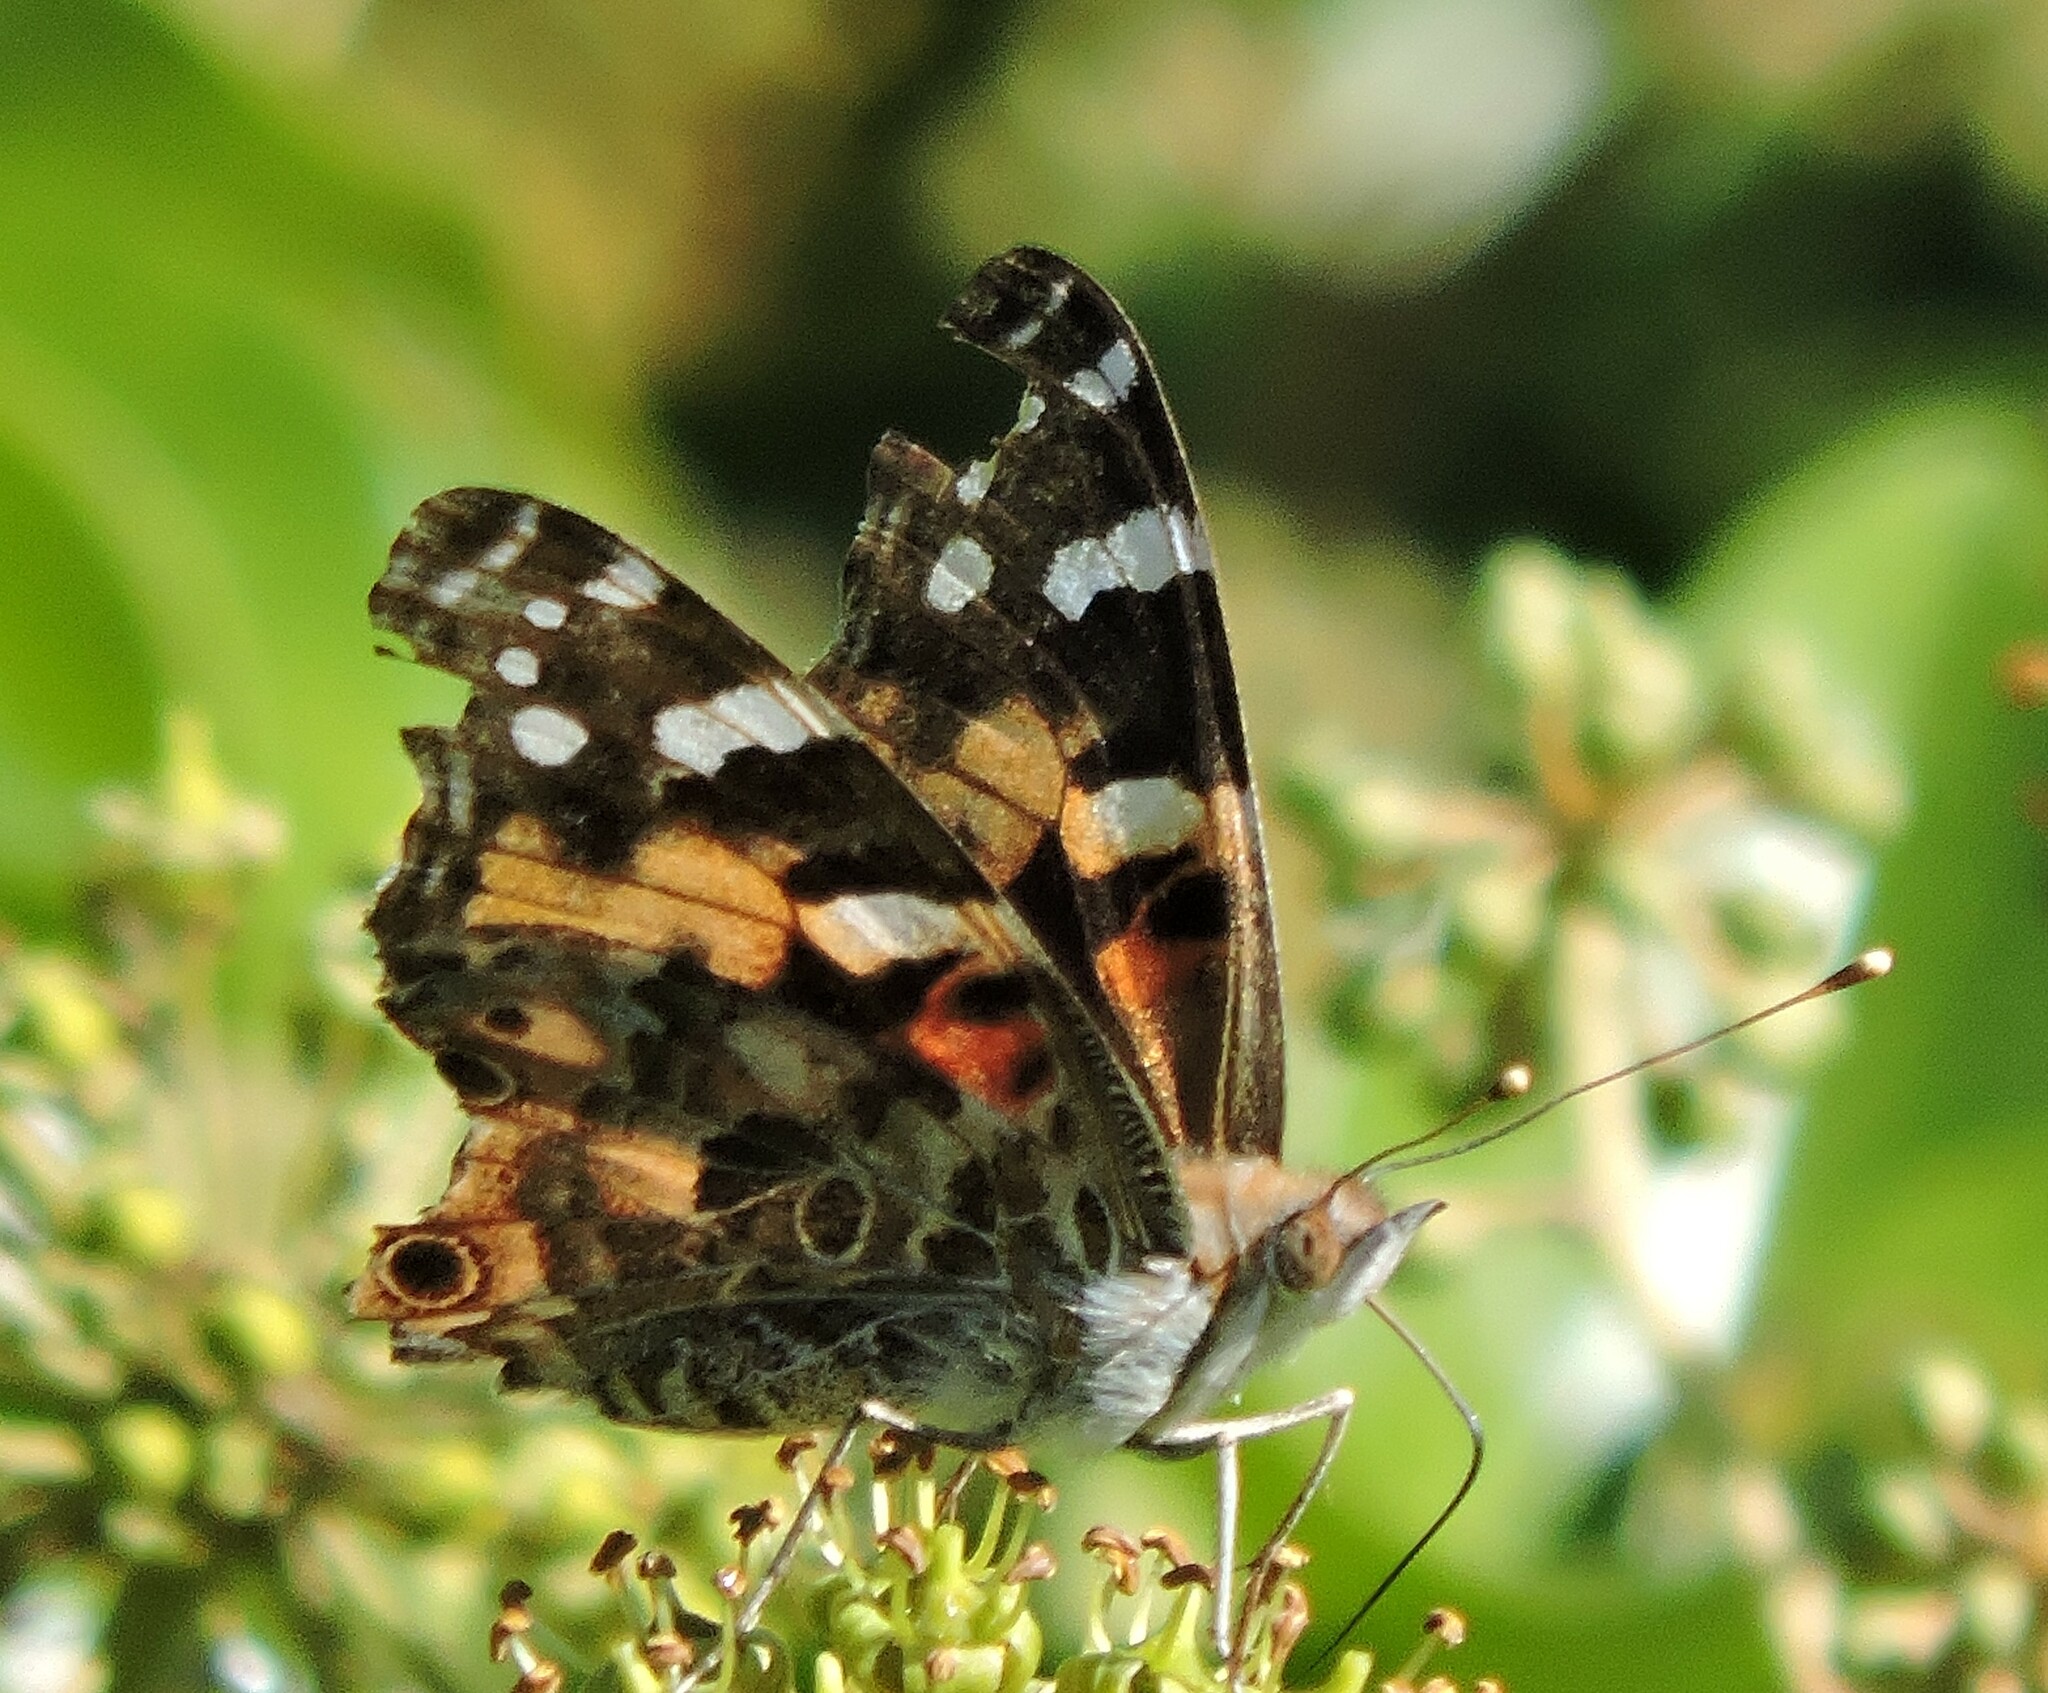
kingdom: Animalia
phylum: Arthropoda
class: Insecta
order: Lepidoptera
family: Nymphalidae
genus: Vanessa
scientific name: Vanessa cardui
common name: Painted lady
